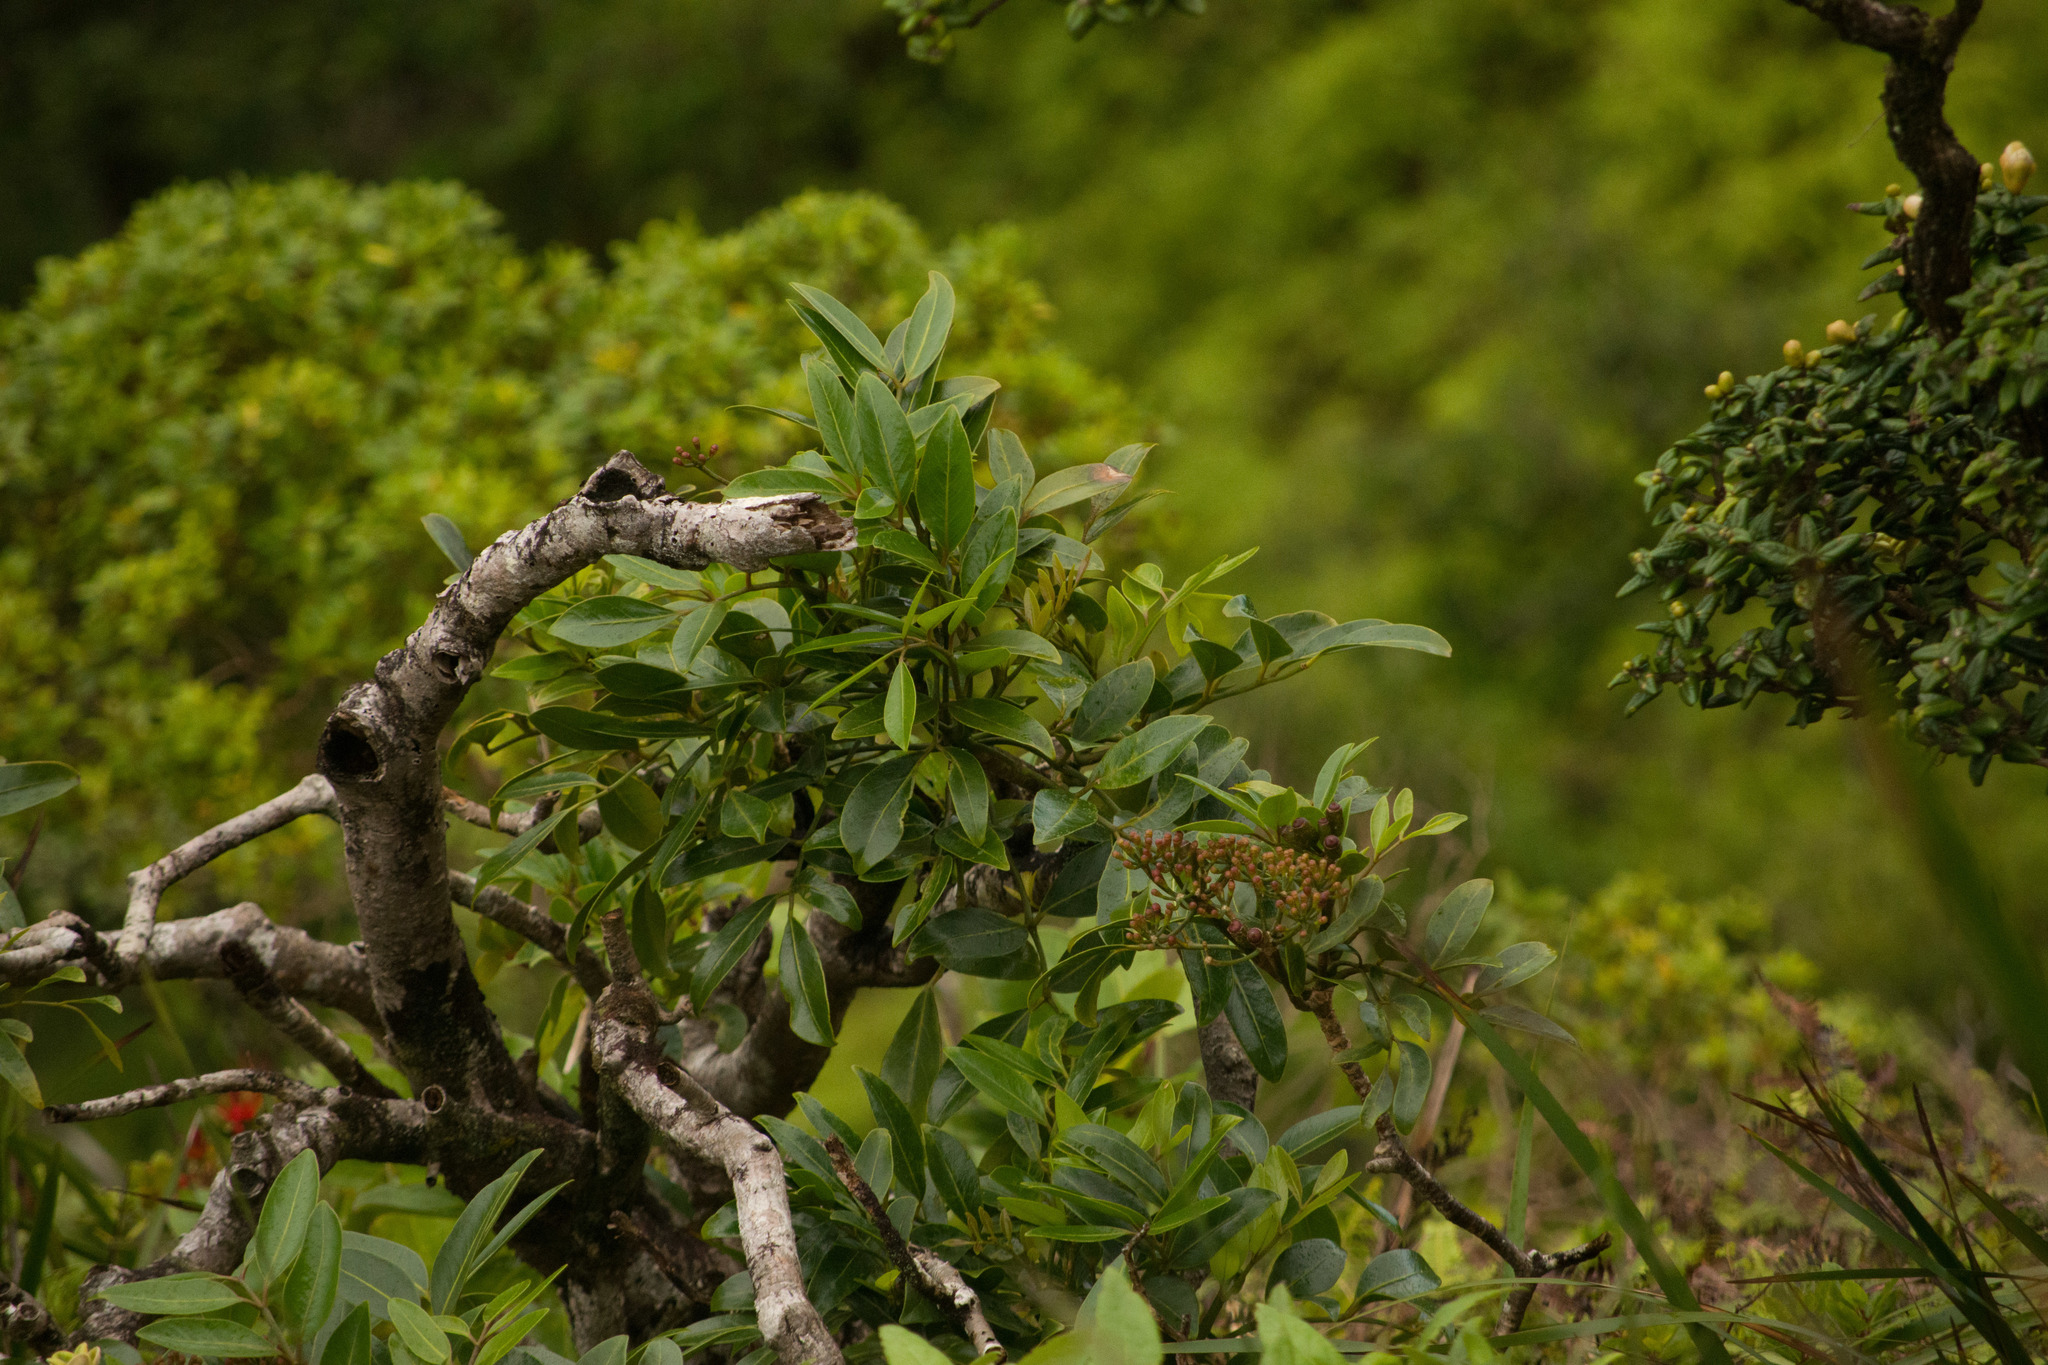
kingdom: Plantae
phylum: Tracheophyta
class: Magnoliopsida
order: Apiales
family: Araliaceae
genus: Polyscias
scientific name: Polyscias oahuensis
